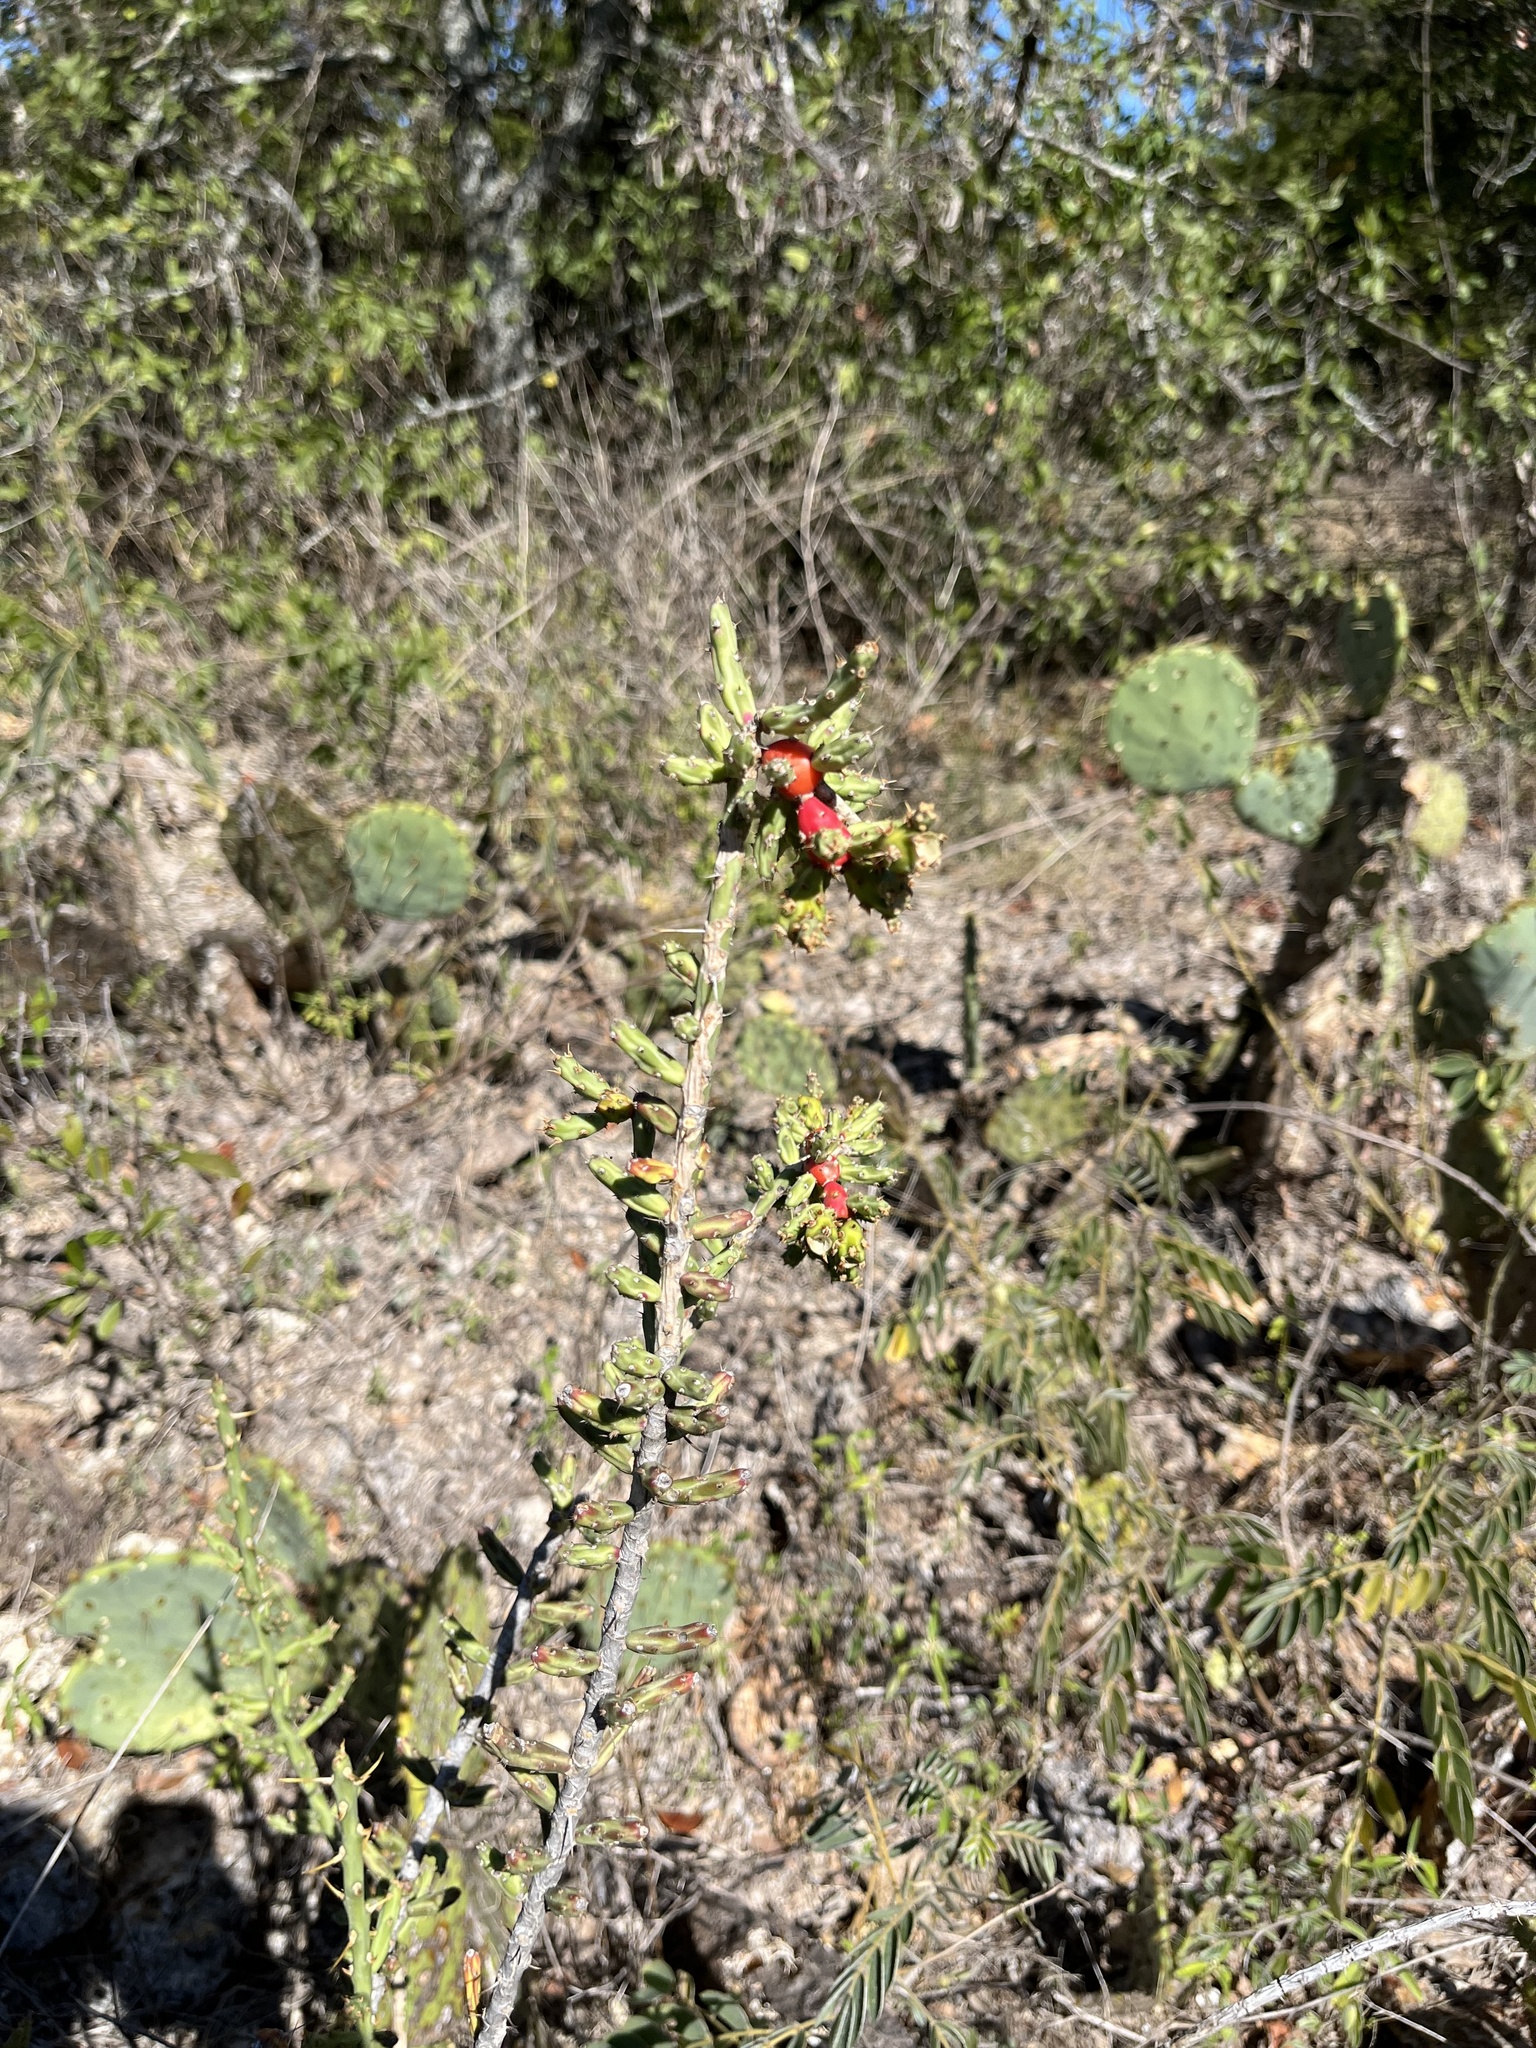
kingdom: Plantae
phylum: Tracheophyta
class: Magnoliopsida
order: Caryophyllales
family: Cactaceae
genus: Cylindropuntia
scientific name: Cylindropuntia leptocaulis
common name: Christmas cactus
